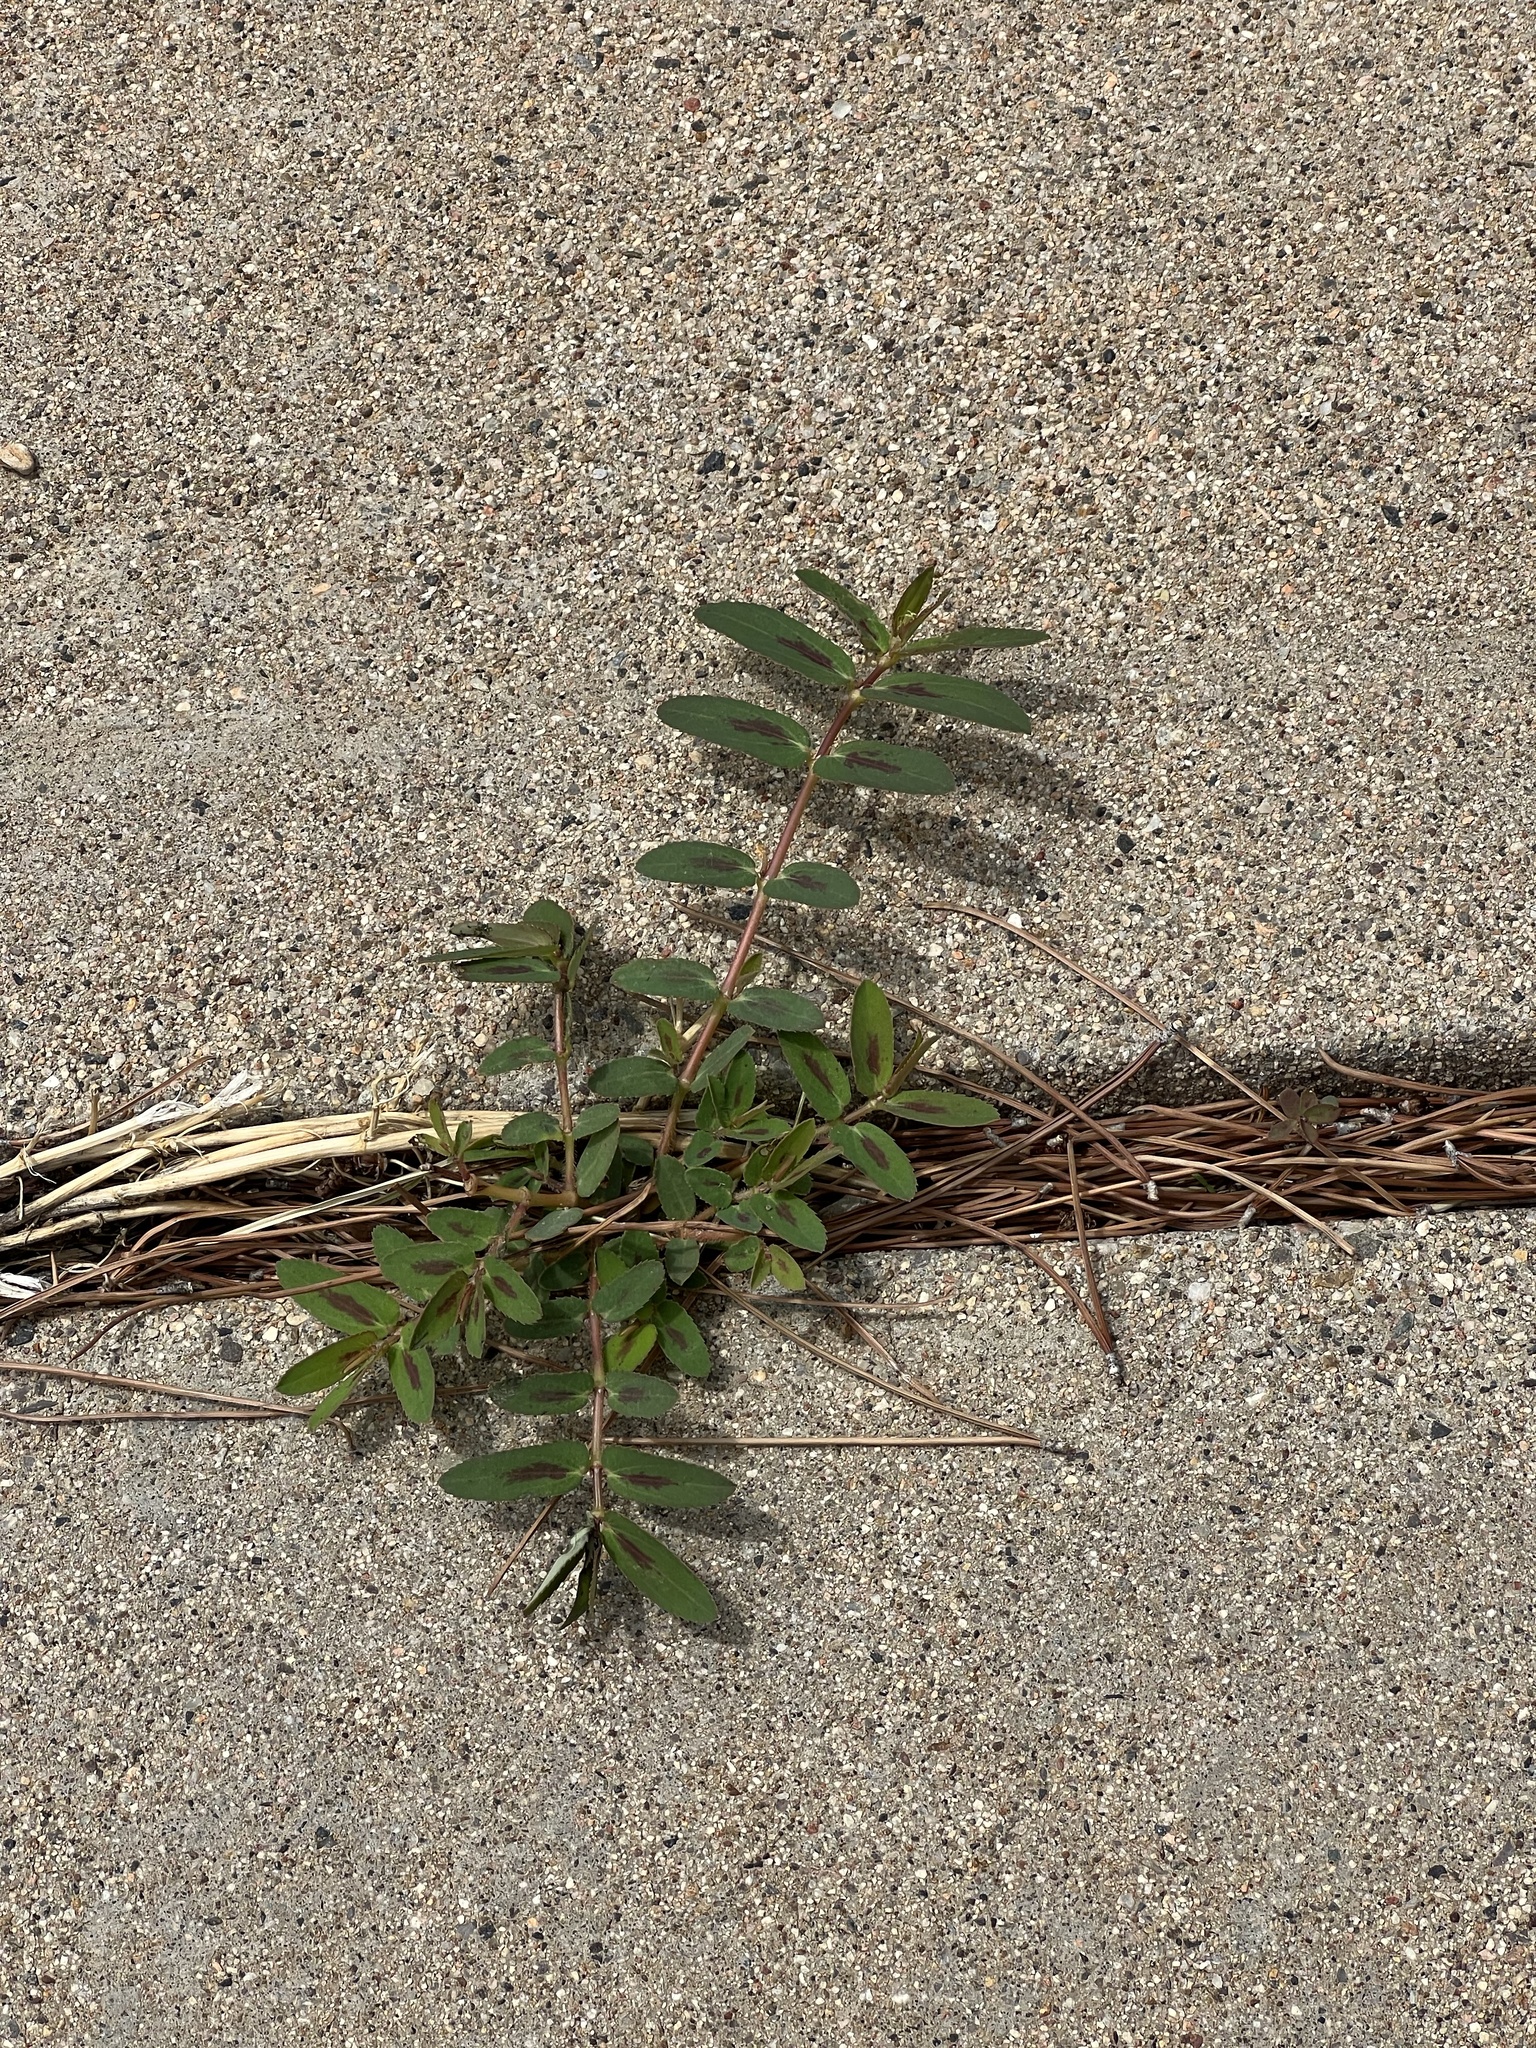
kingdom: Plantae
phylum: Tracheophyta
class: Magnoliopsida
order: Malpighiales
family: Euphorbiaceae
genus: Euphorbia
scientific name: Euphorbia hyssopifolia
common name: Hyssopleaf sandmat
